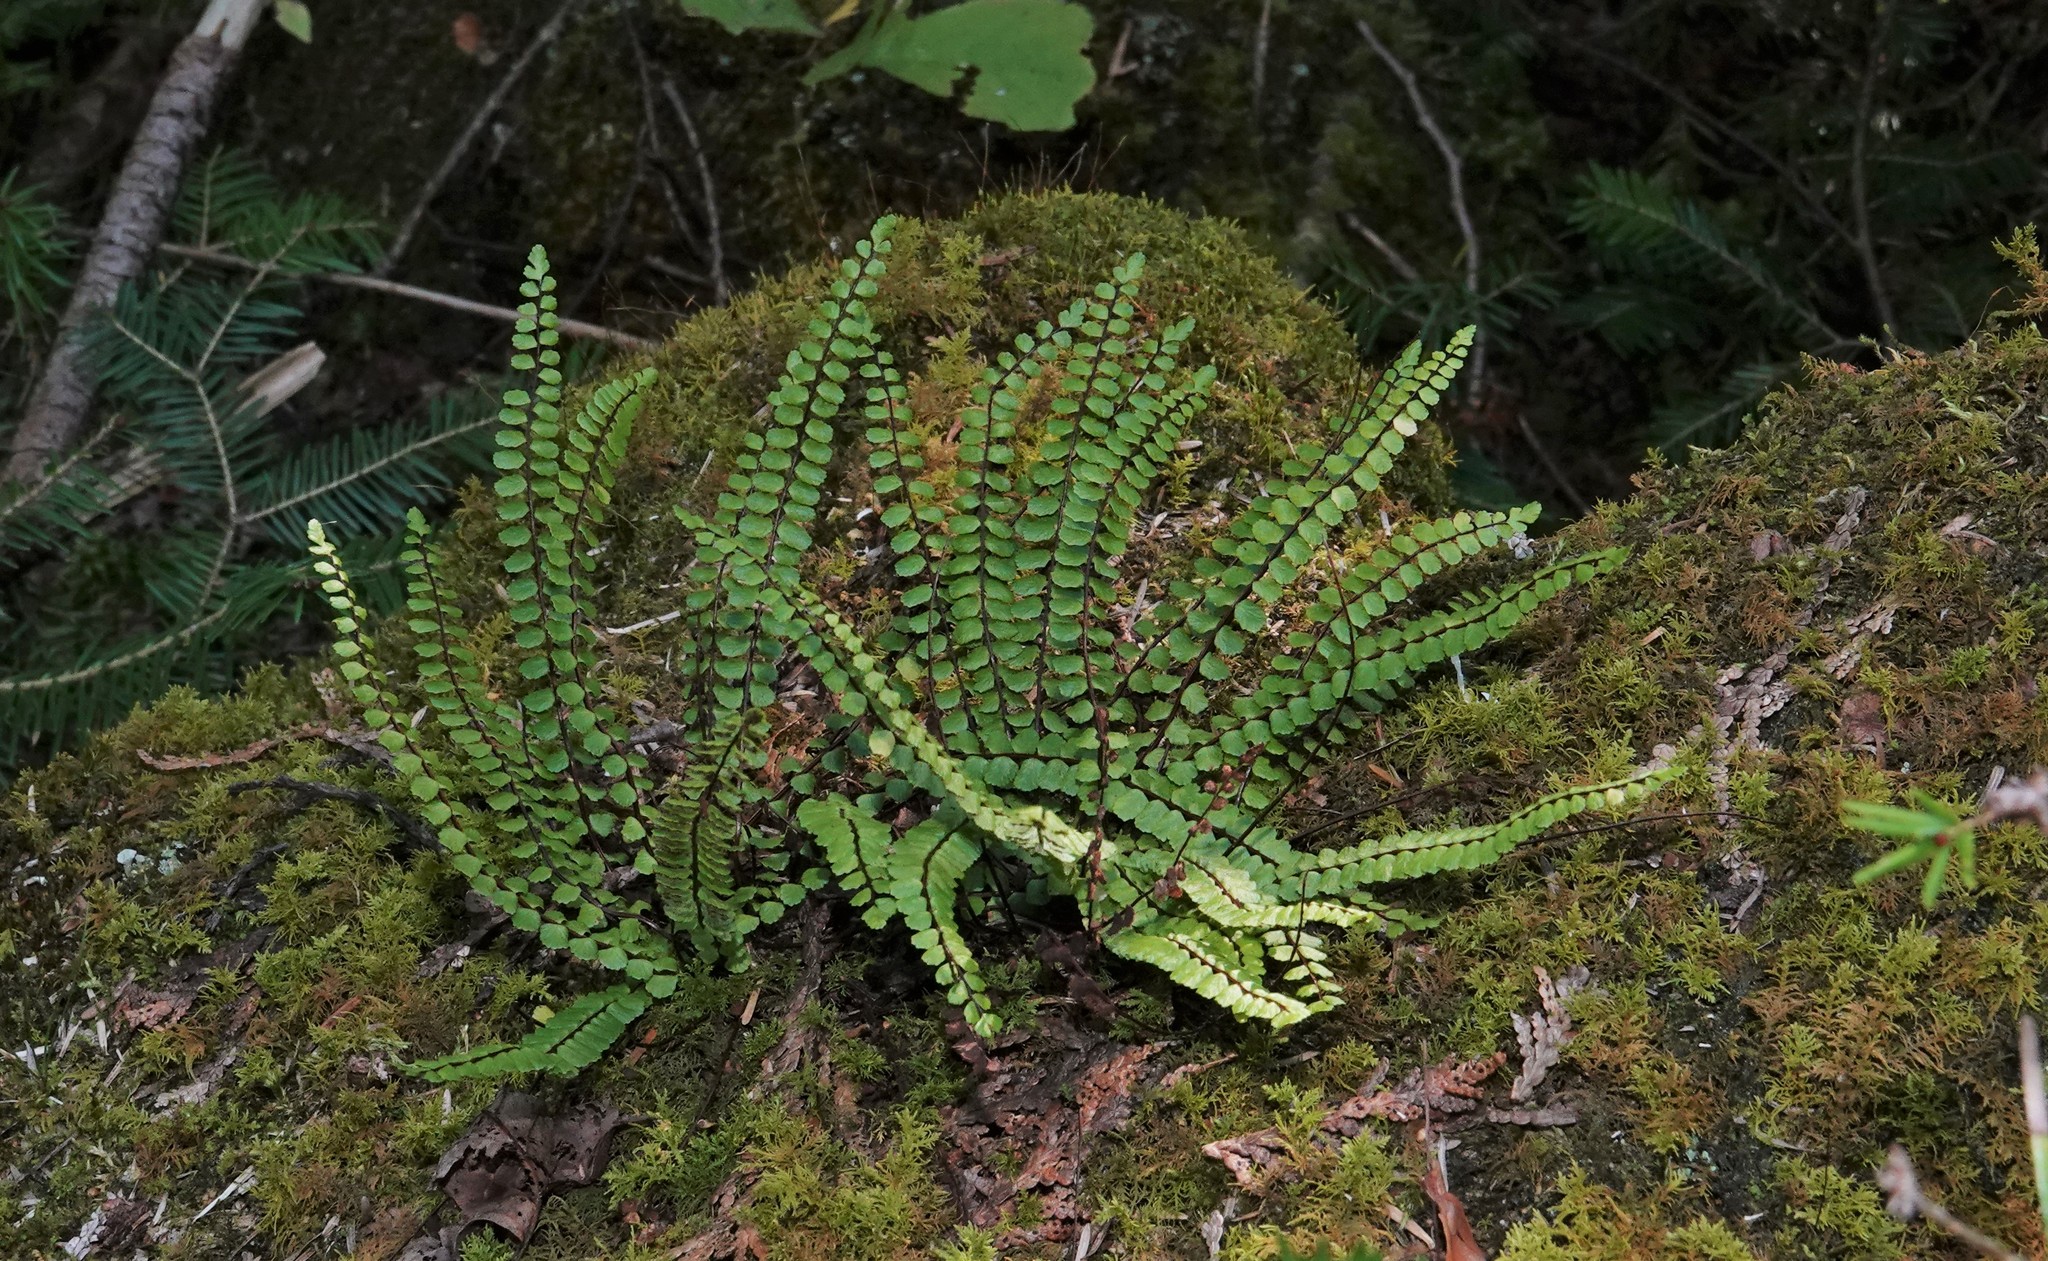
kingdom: Plantae
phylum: Tracheophyta
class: Polypodiopsida
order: Polypodiales
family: Aspleniaceae
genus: Asplenium
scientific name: Asplenium trichomanes
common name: Maidenhair spleenwort
